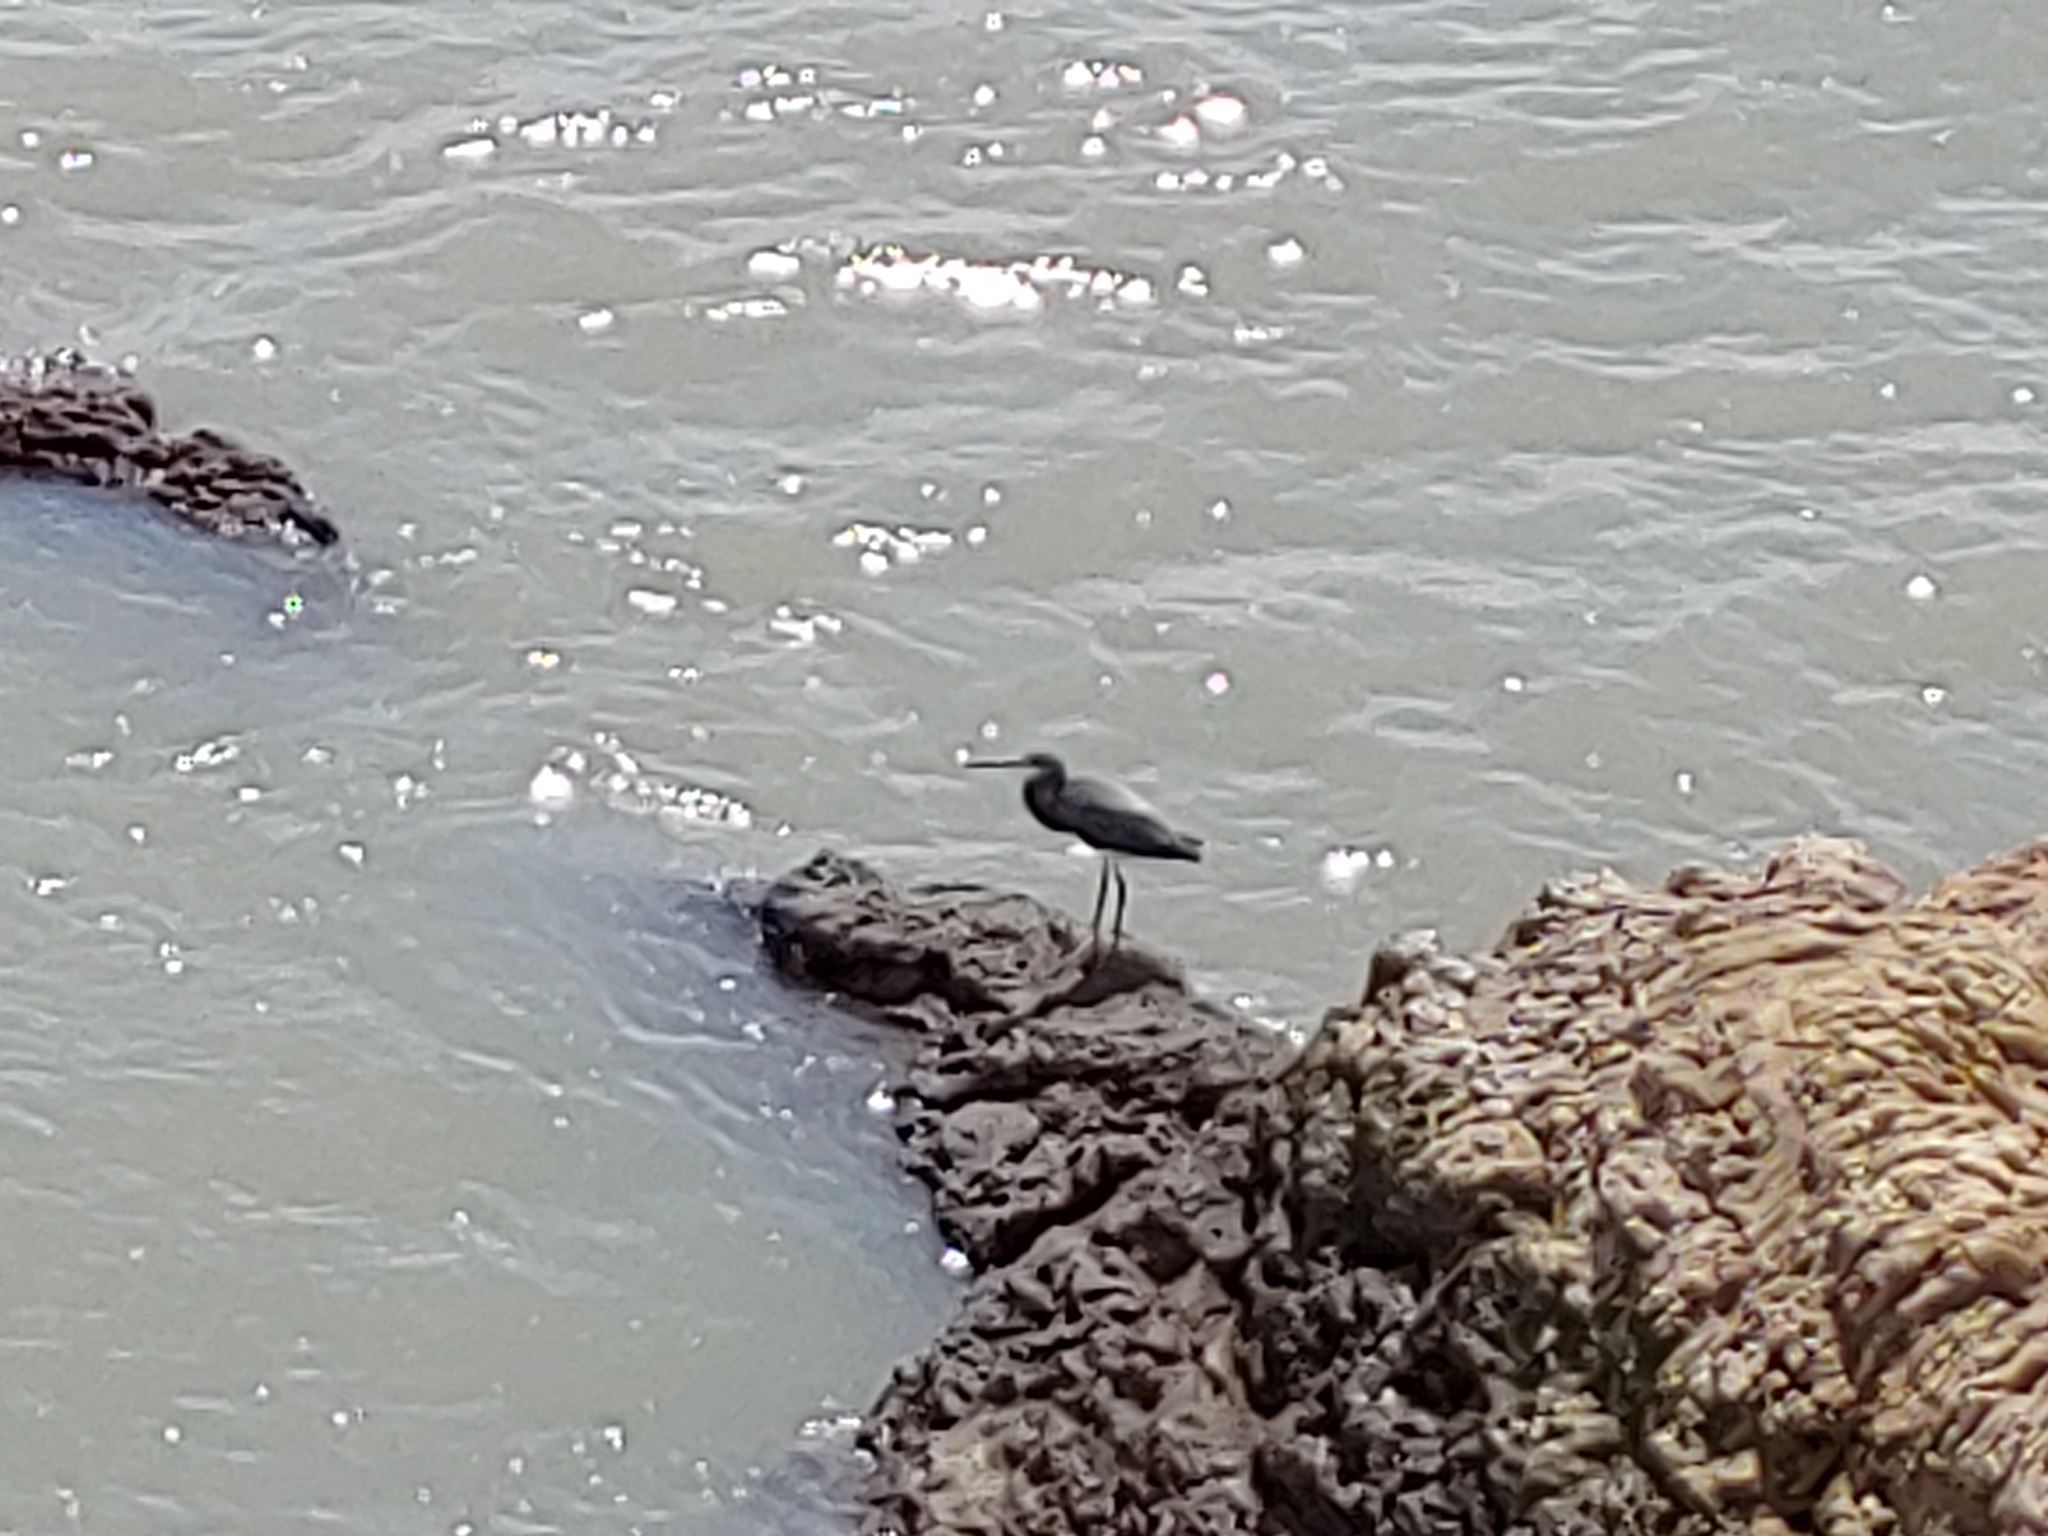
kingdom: Animalia
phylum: Chordata
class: Aves
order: Pelecaniformes
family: Ardeidae
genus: Egretta
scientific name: Egretta tricolor
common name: Tricolored heron
